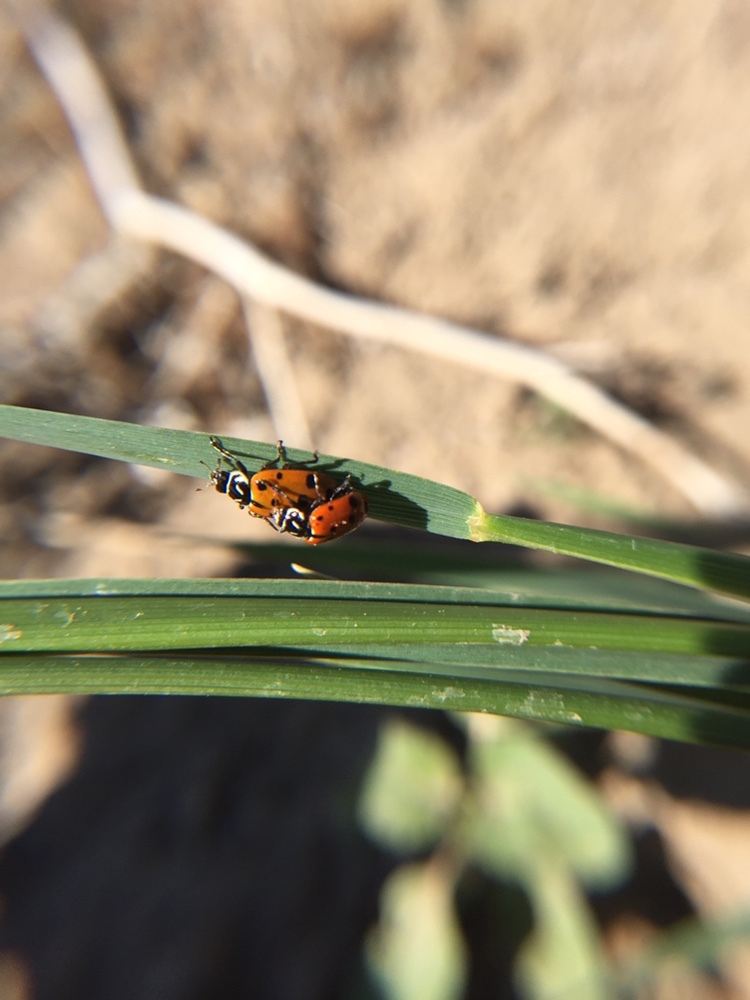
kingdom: Animalia
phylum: Arthropoda
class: Insecta
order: Coleoptera
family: Coccinellidae
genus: Hippodamia
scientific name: Hippodamia convergens
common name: Convergent lady beetle
